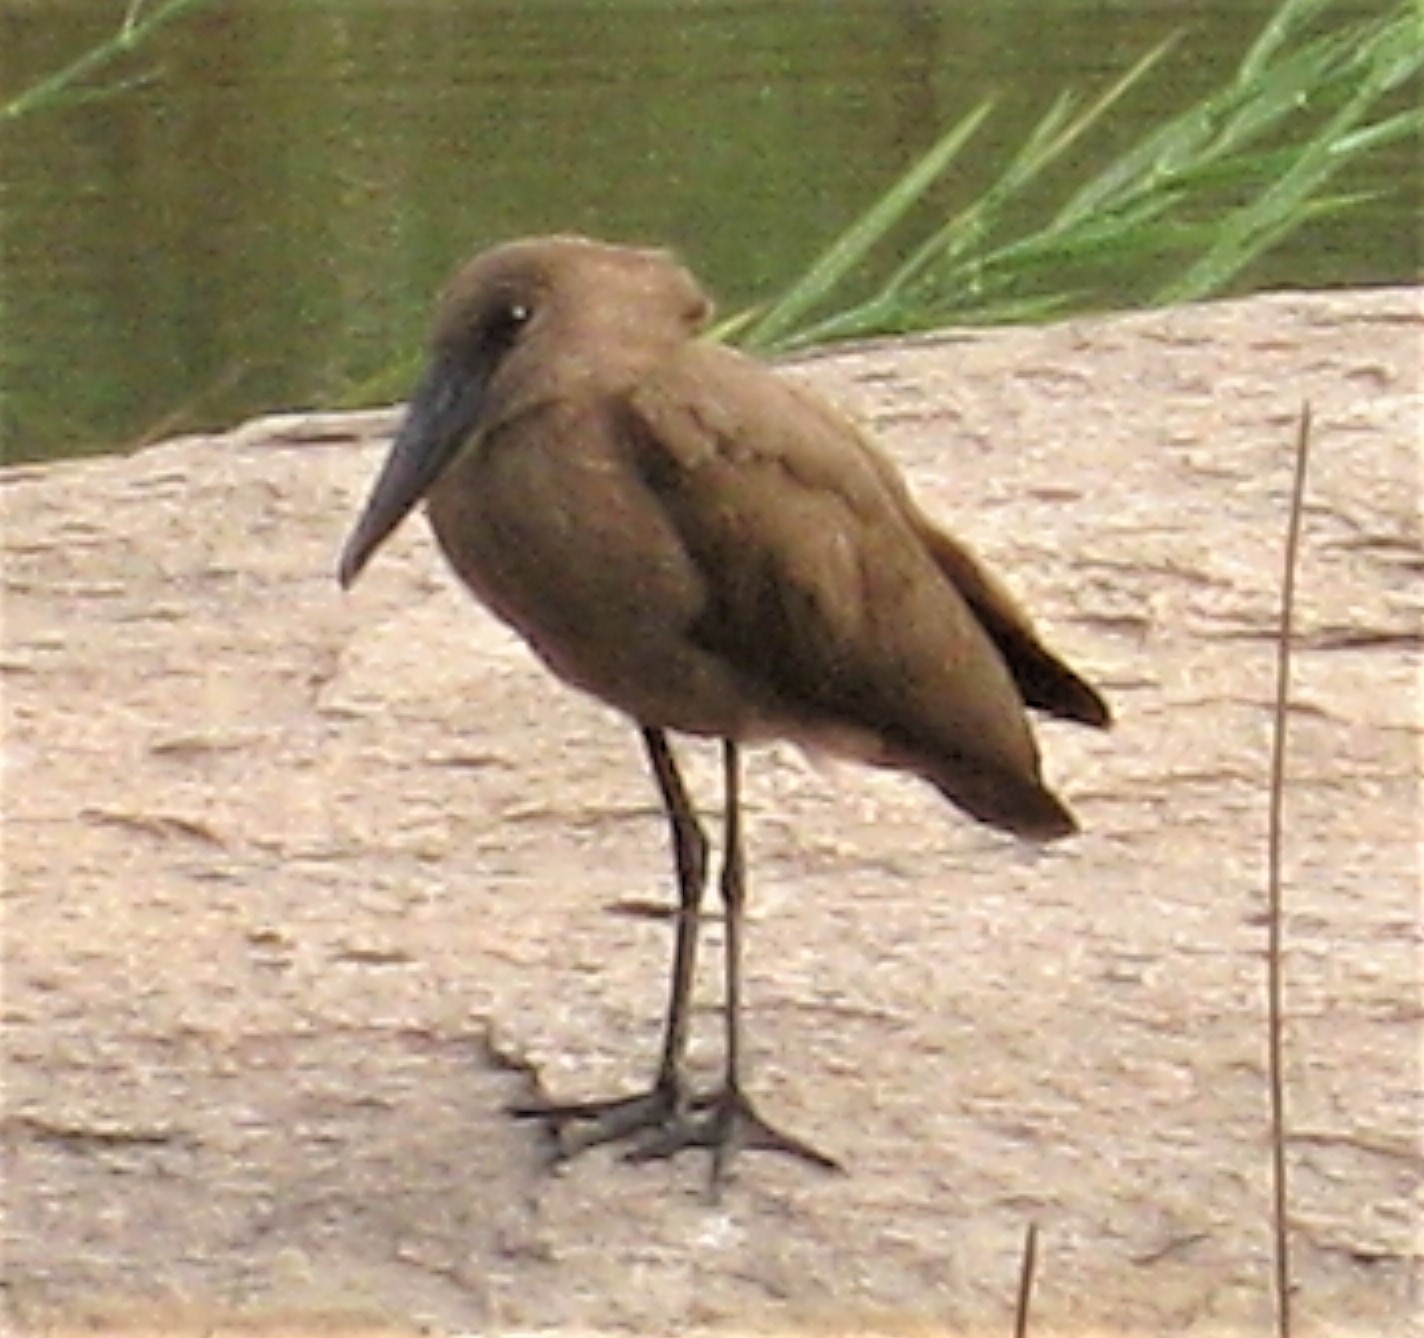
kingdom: Animalia
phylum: Chordata
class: Aves
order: Pelecaniformes
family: Scopidae
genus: Scopus
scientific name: Scopus umbretta
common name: Hamerkop
